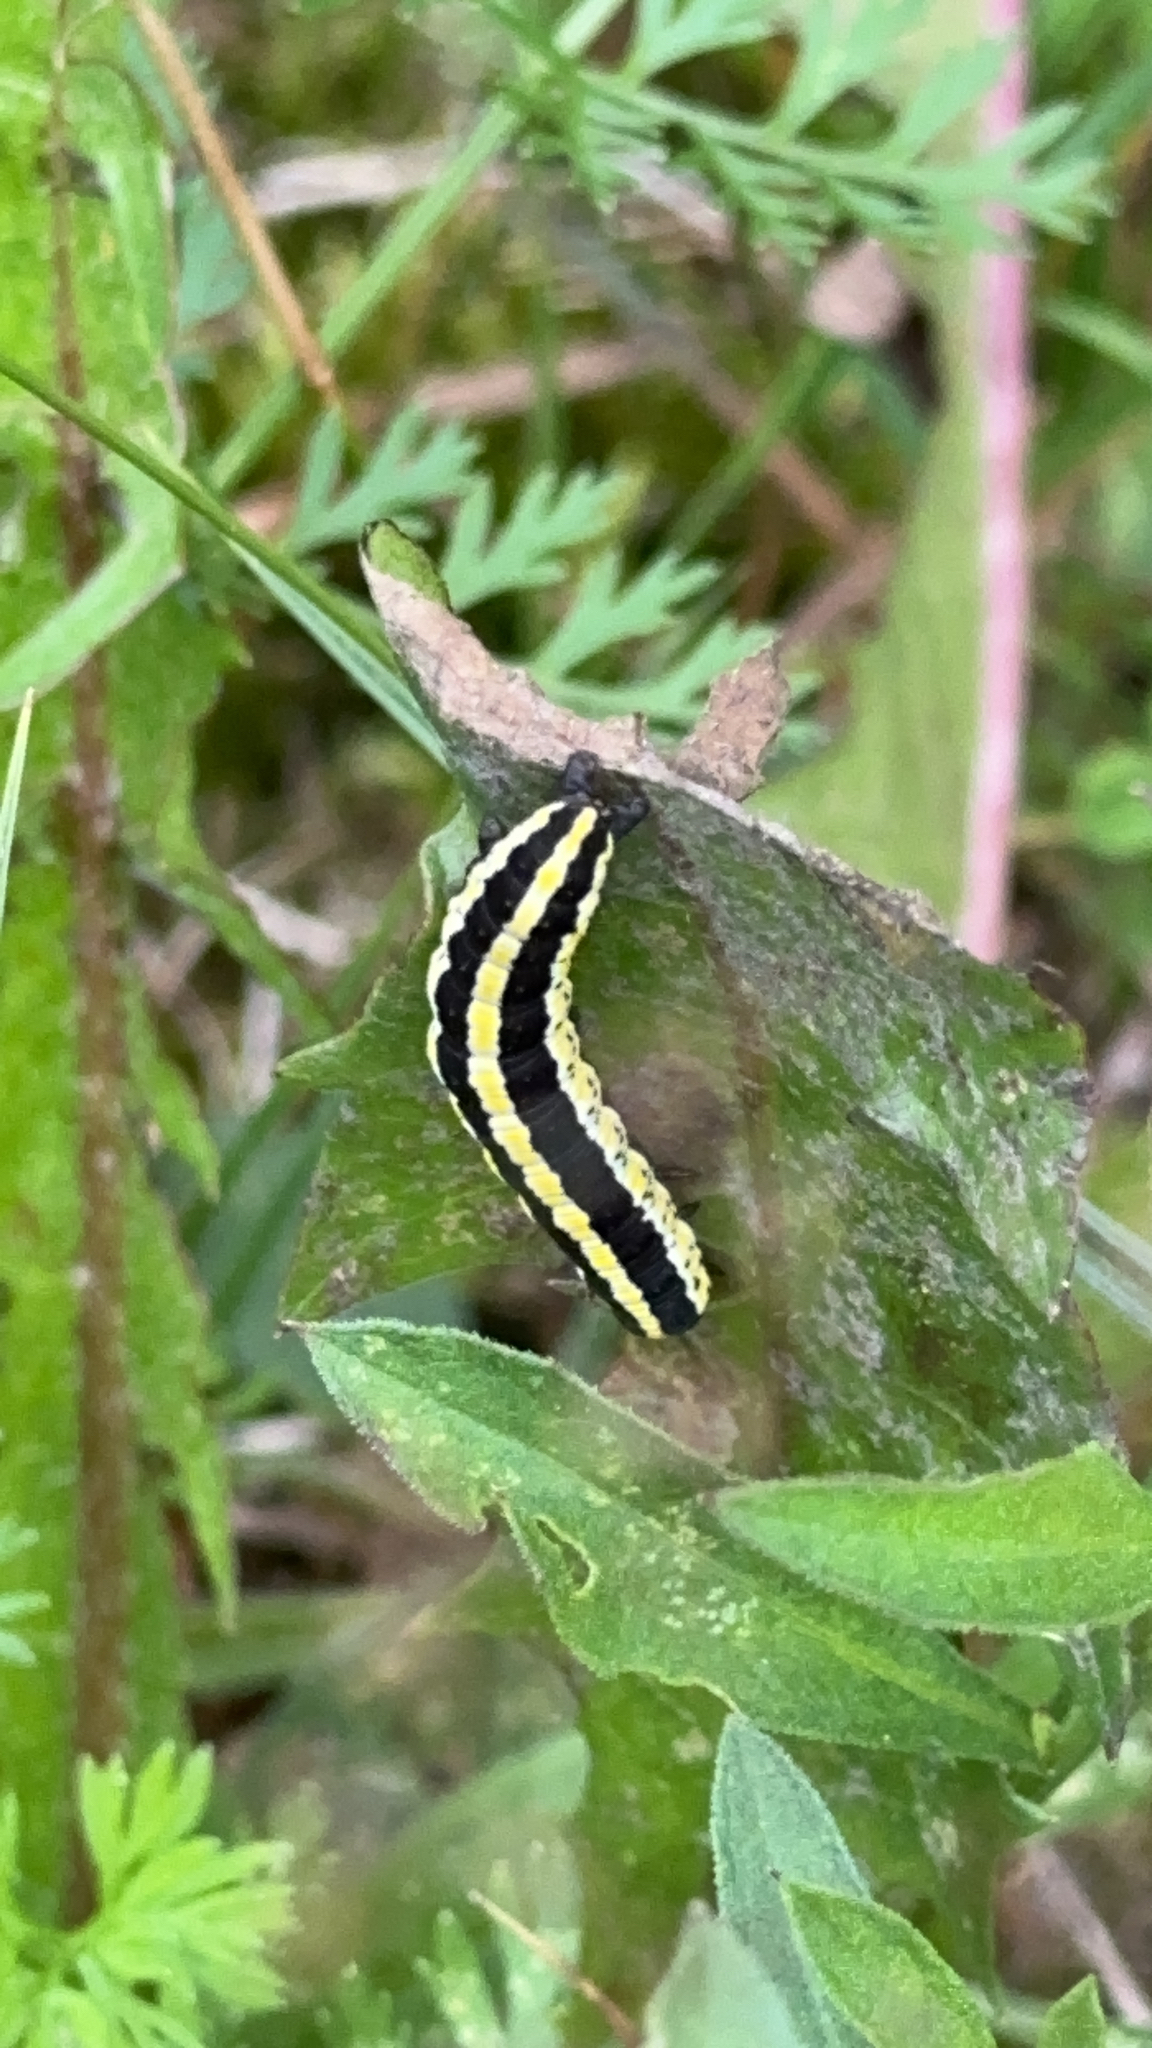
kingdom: Animalia
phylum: Arthropoda
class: Insecta
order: Lepidoptera
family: Noctuidae
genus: Cucullia
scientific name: Cucullia lucifuga
